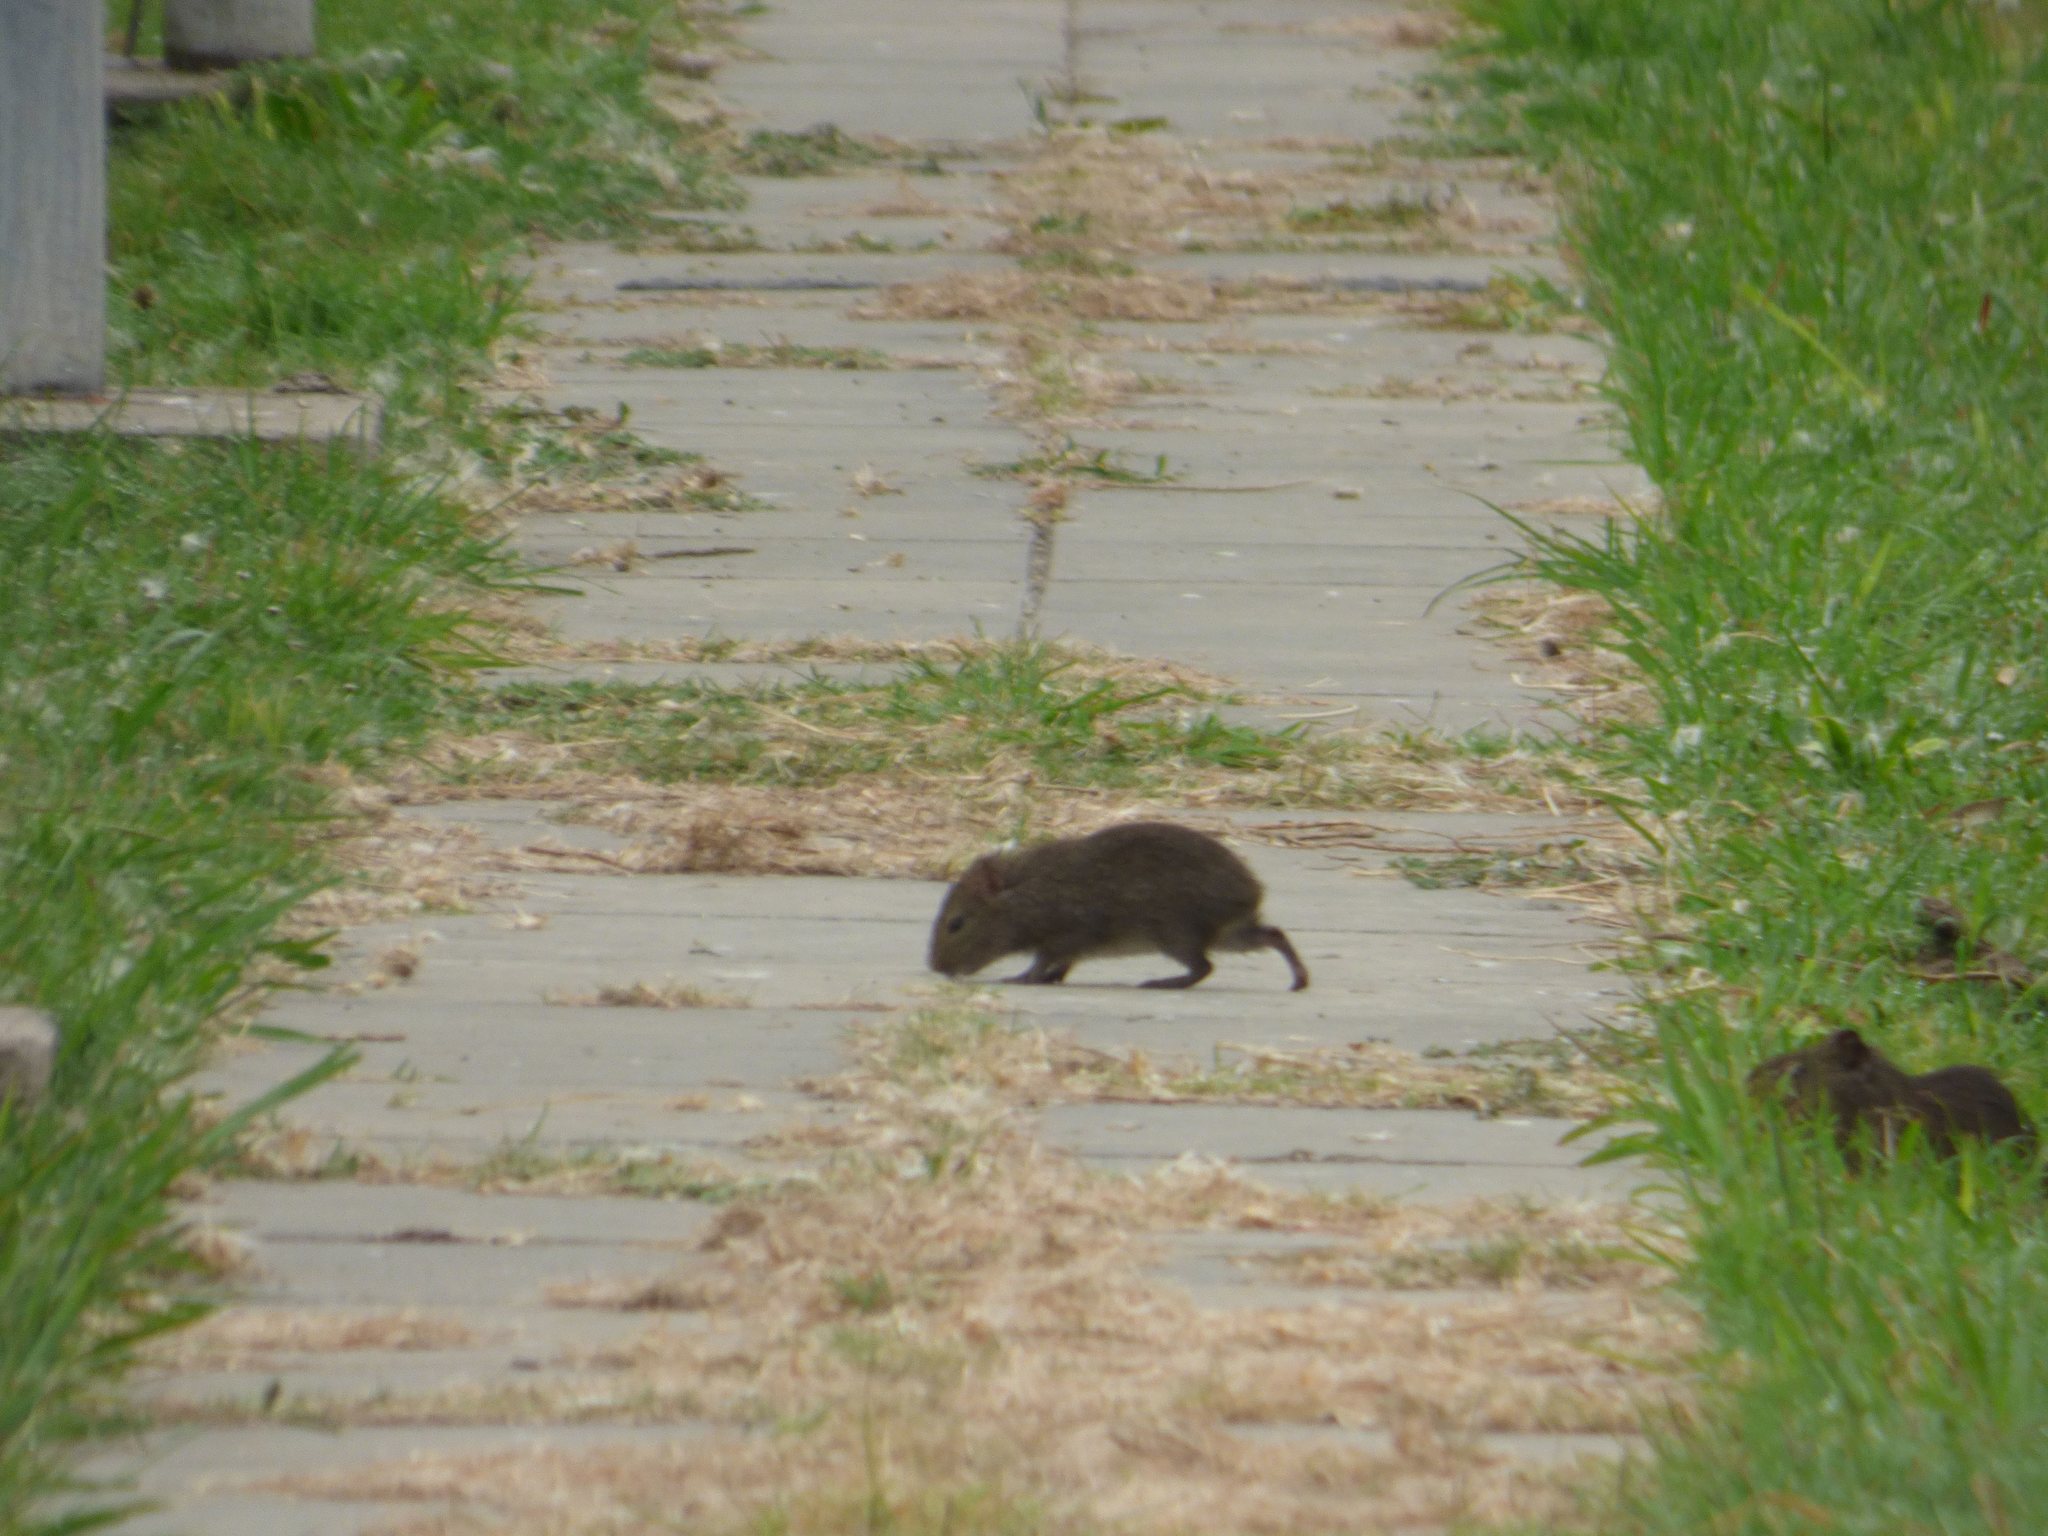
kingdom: Animalia
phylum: Chordata
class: Mammalia
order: Rodentia
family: Caviidae
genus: Cavia
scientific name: Cavia aperea
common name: Brazilian guinea pig
